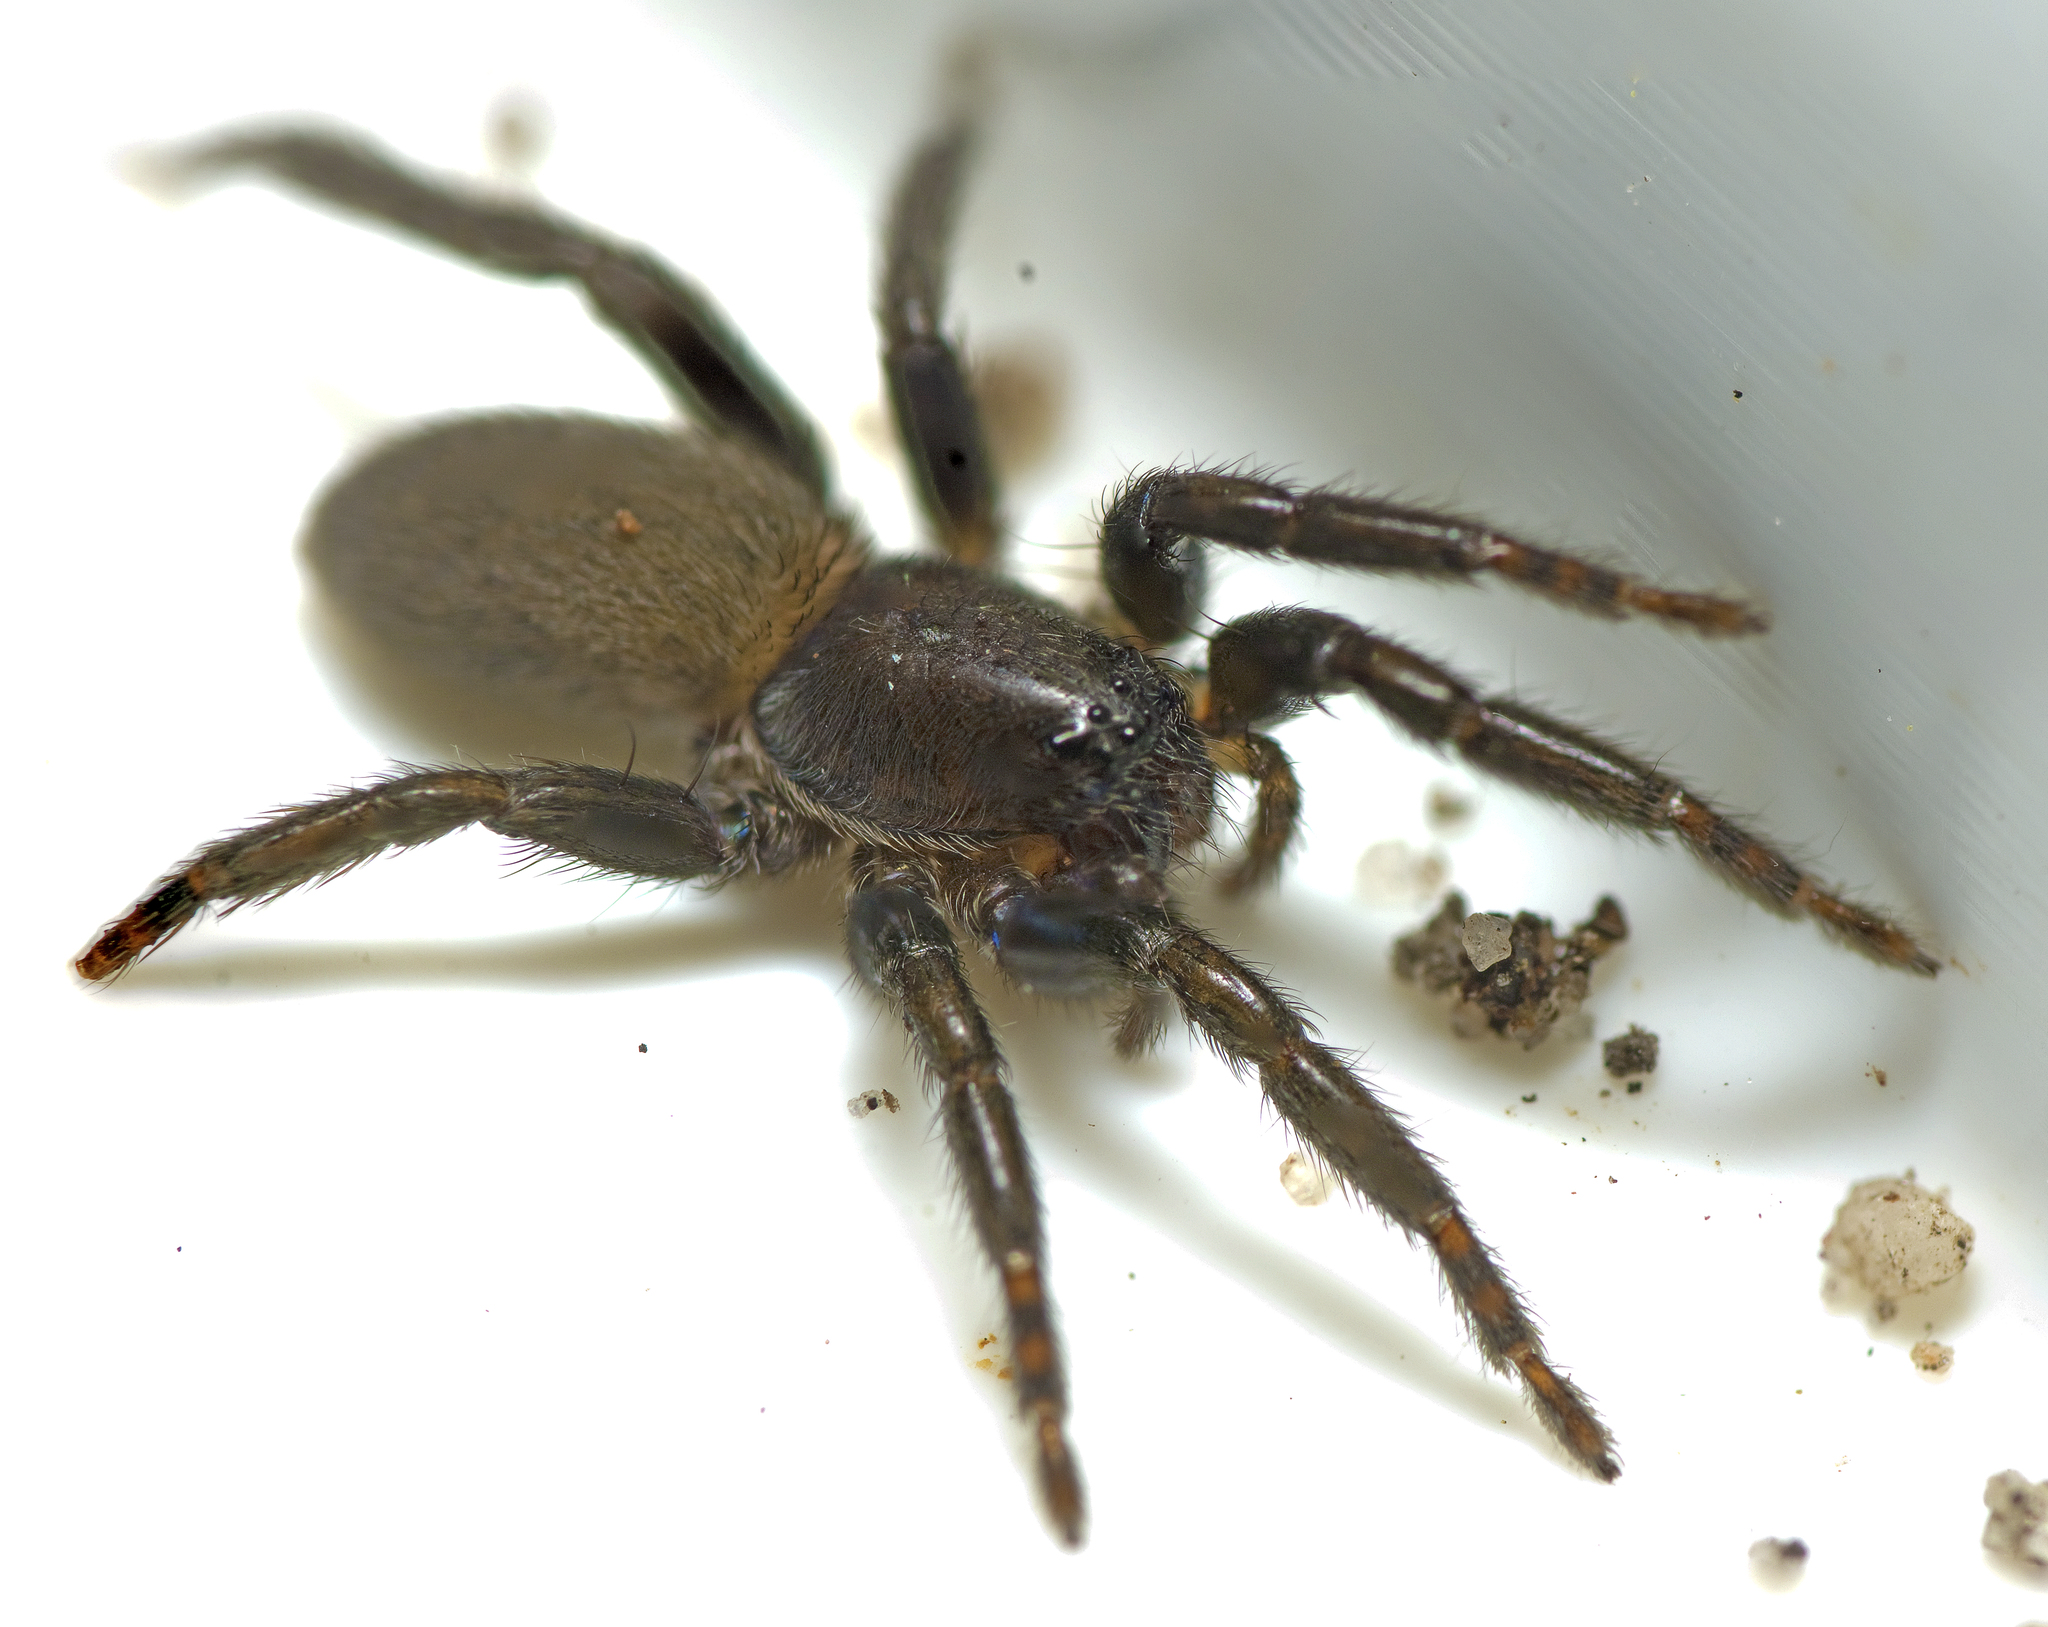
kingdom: Animalia
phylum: Arthropoda
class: Arachnida
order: Araneae
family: Miturgidae
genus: Nuliodon
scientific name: Nuliodon fishburni
